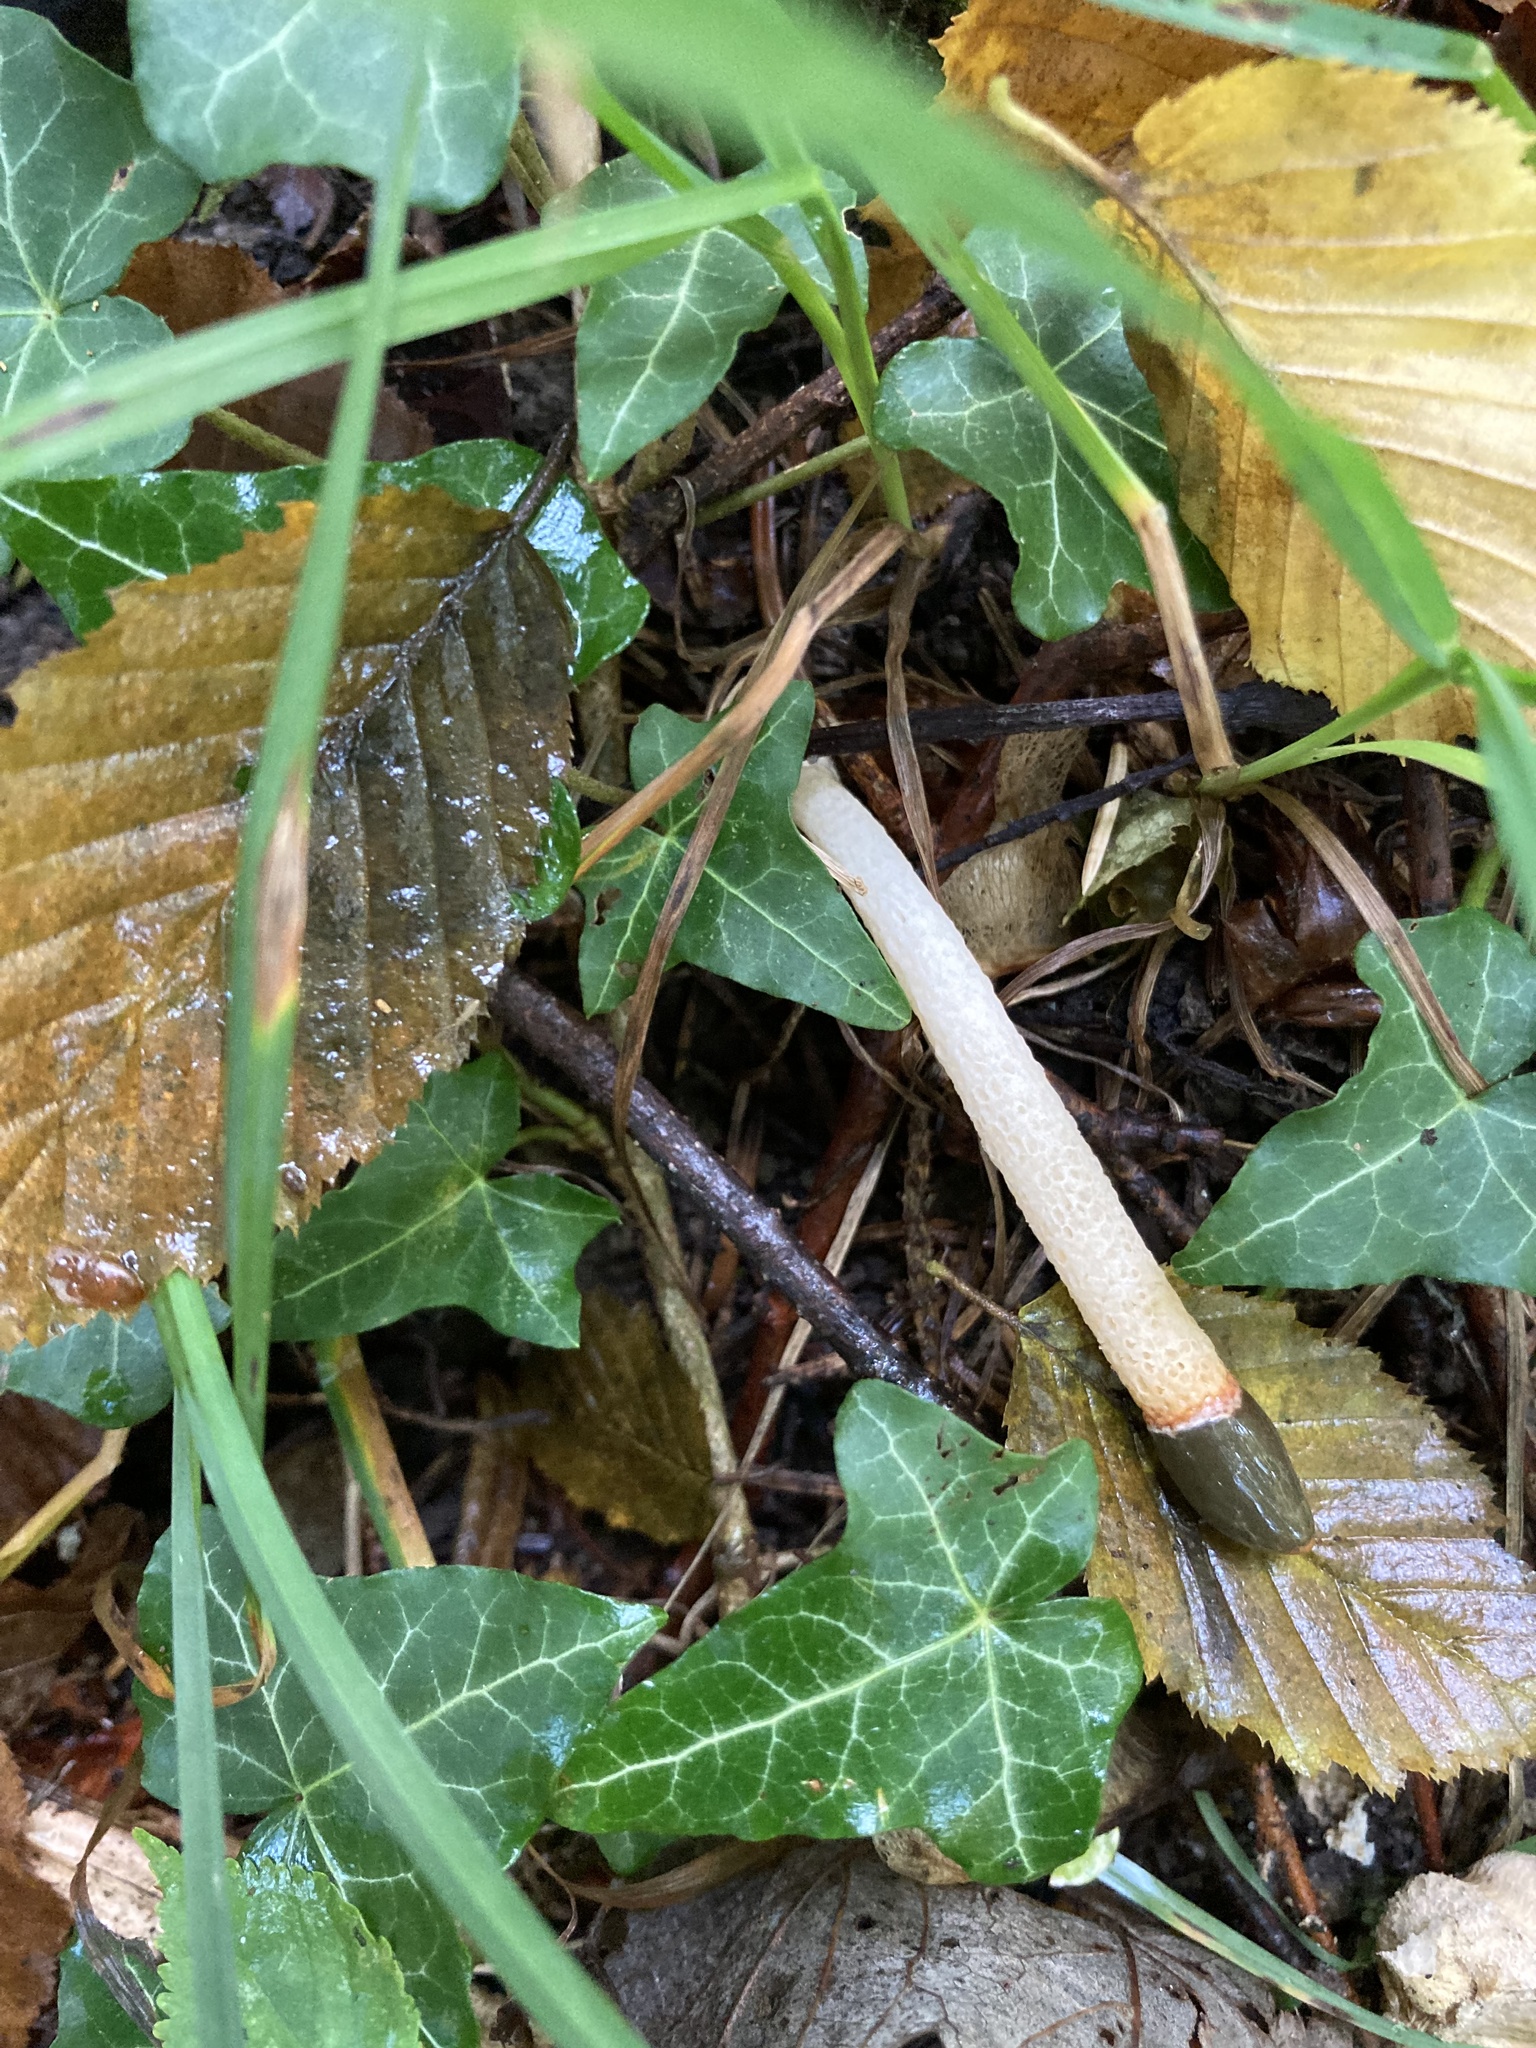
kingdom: Fungi
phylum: Basidiomycota
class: Agaricomycetes
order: Phallales
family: Phallaceae
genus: Mutinus
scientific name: Mutinus caninus
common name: Dog stinkhorn
